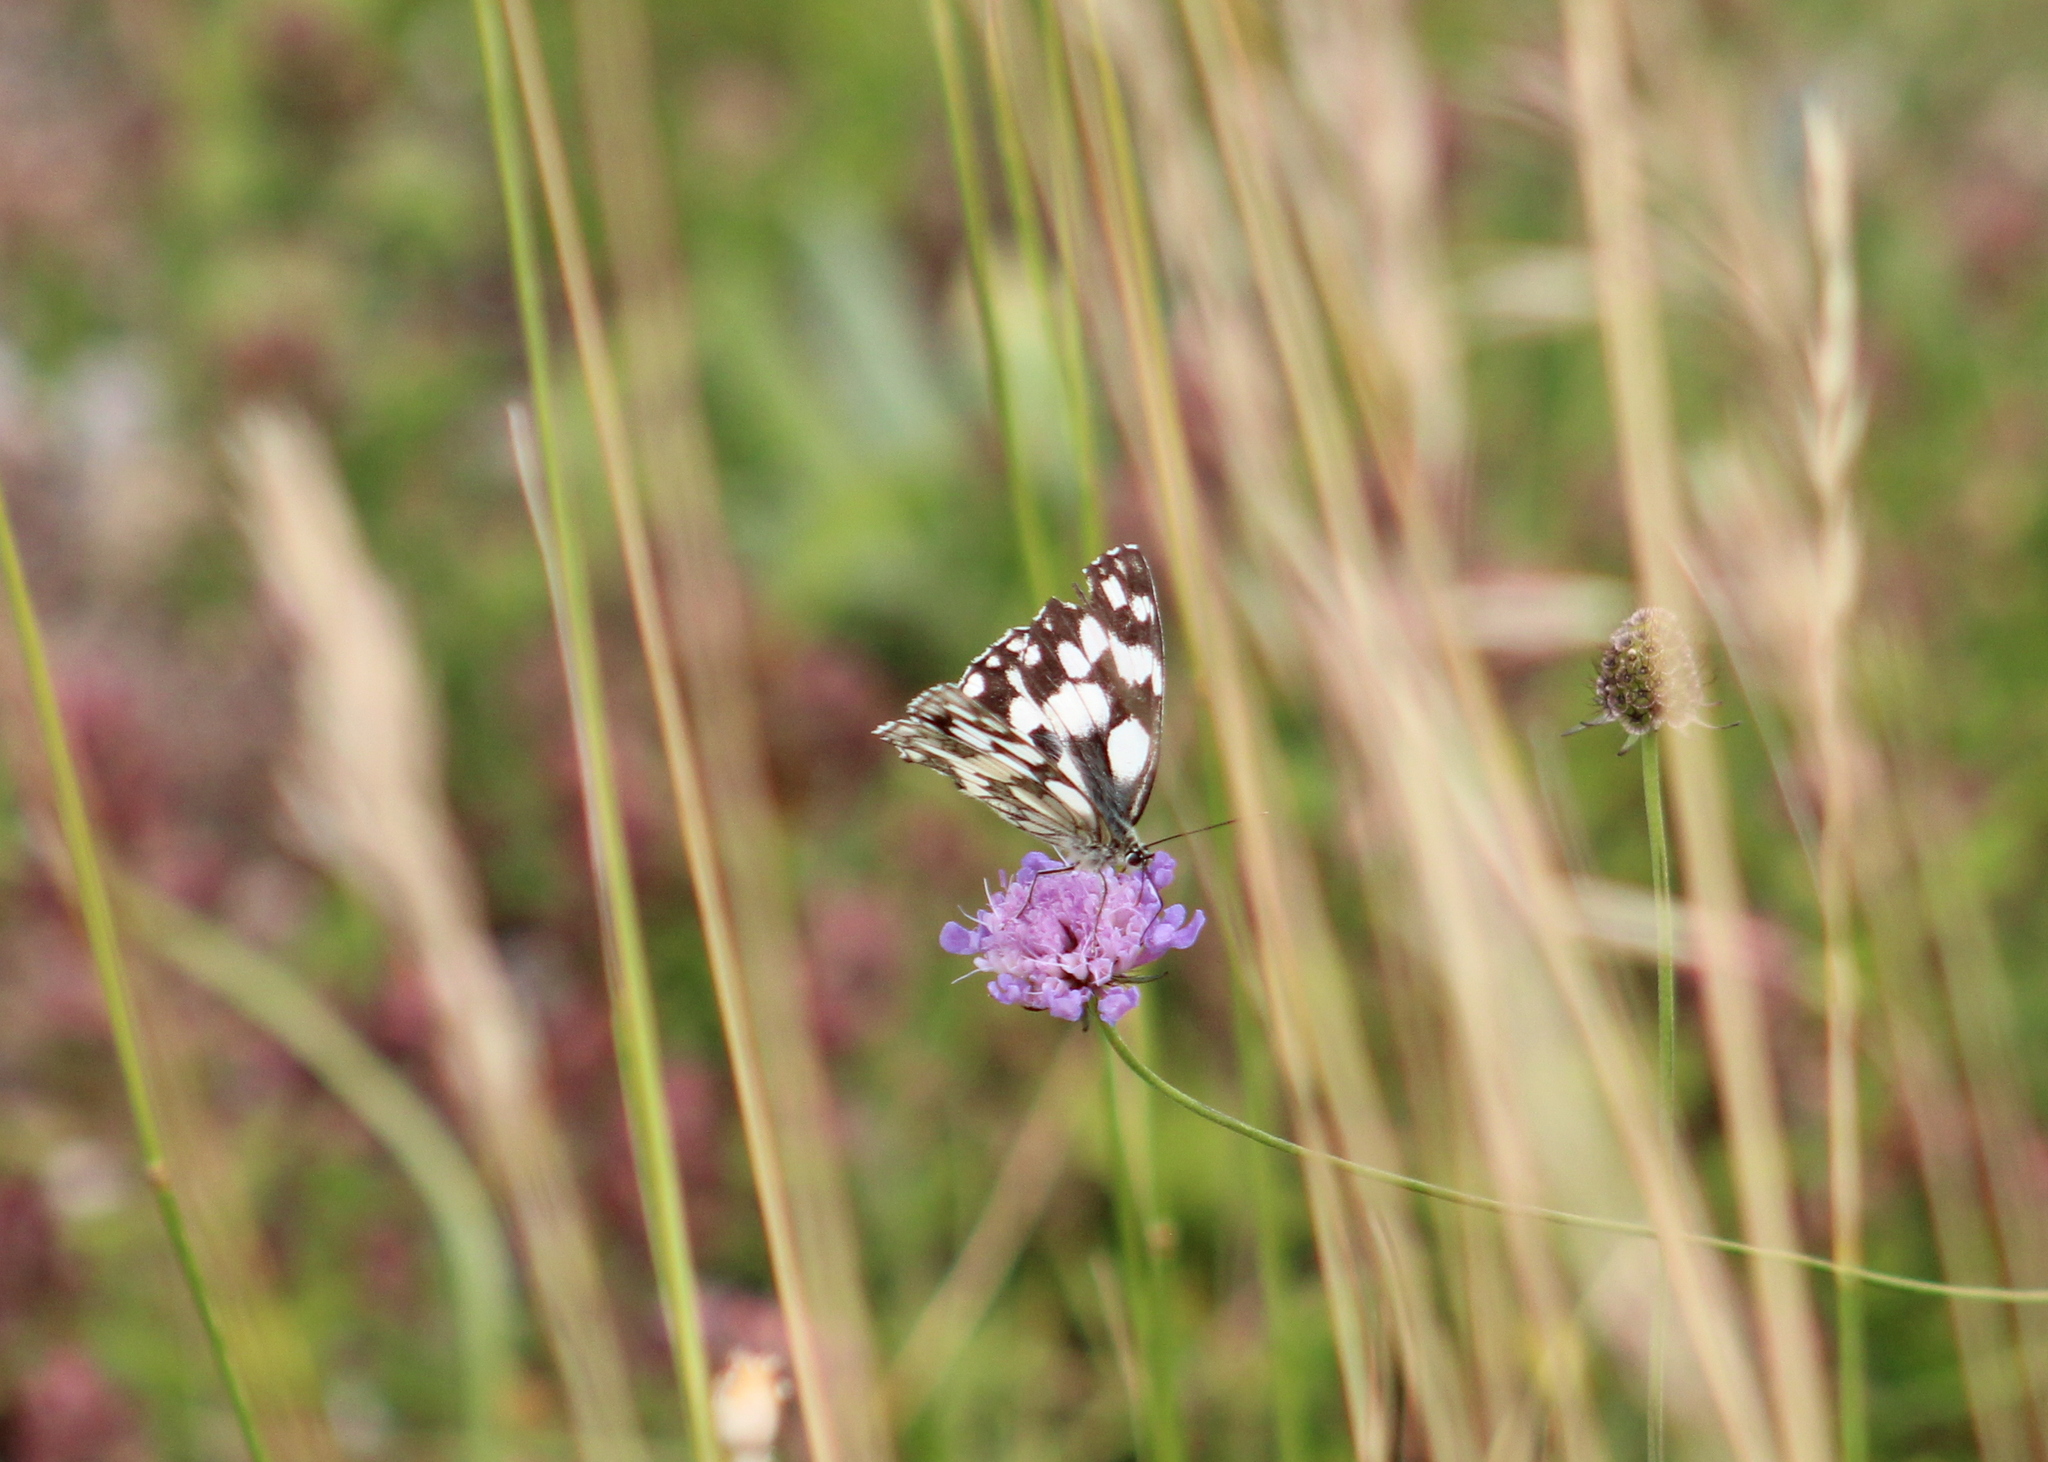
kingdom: Animalia
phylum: Arthropoda
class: Insecta
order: Lepidoptera
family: Nymphalidae
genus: Melanargia
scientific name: Melanargia galathea
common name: Marbled white
